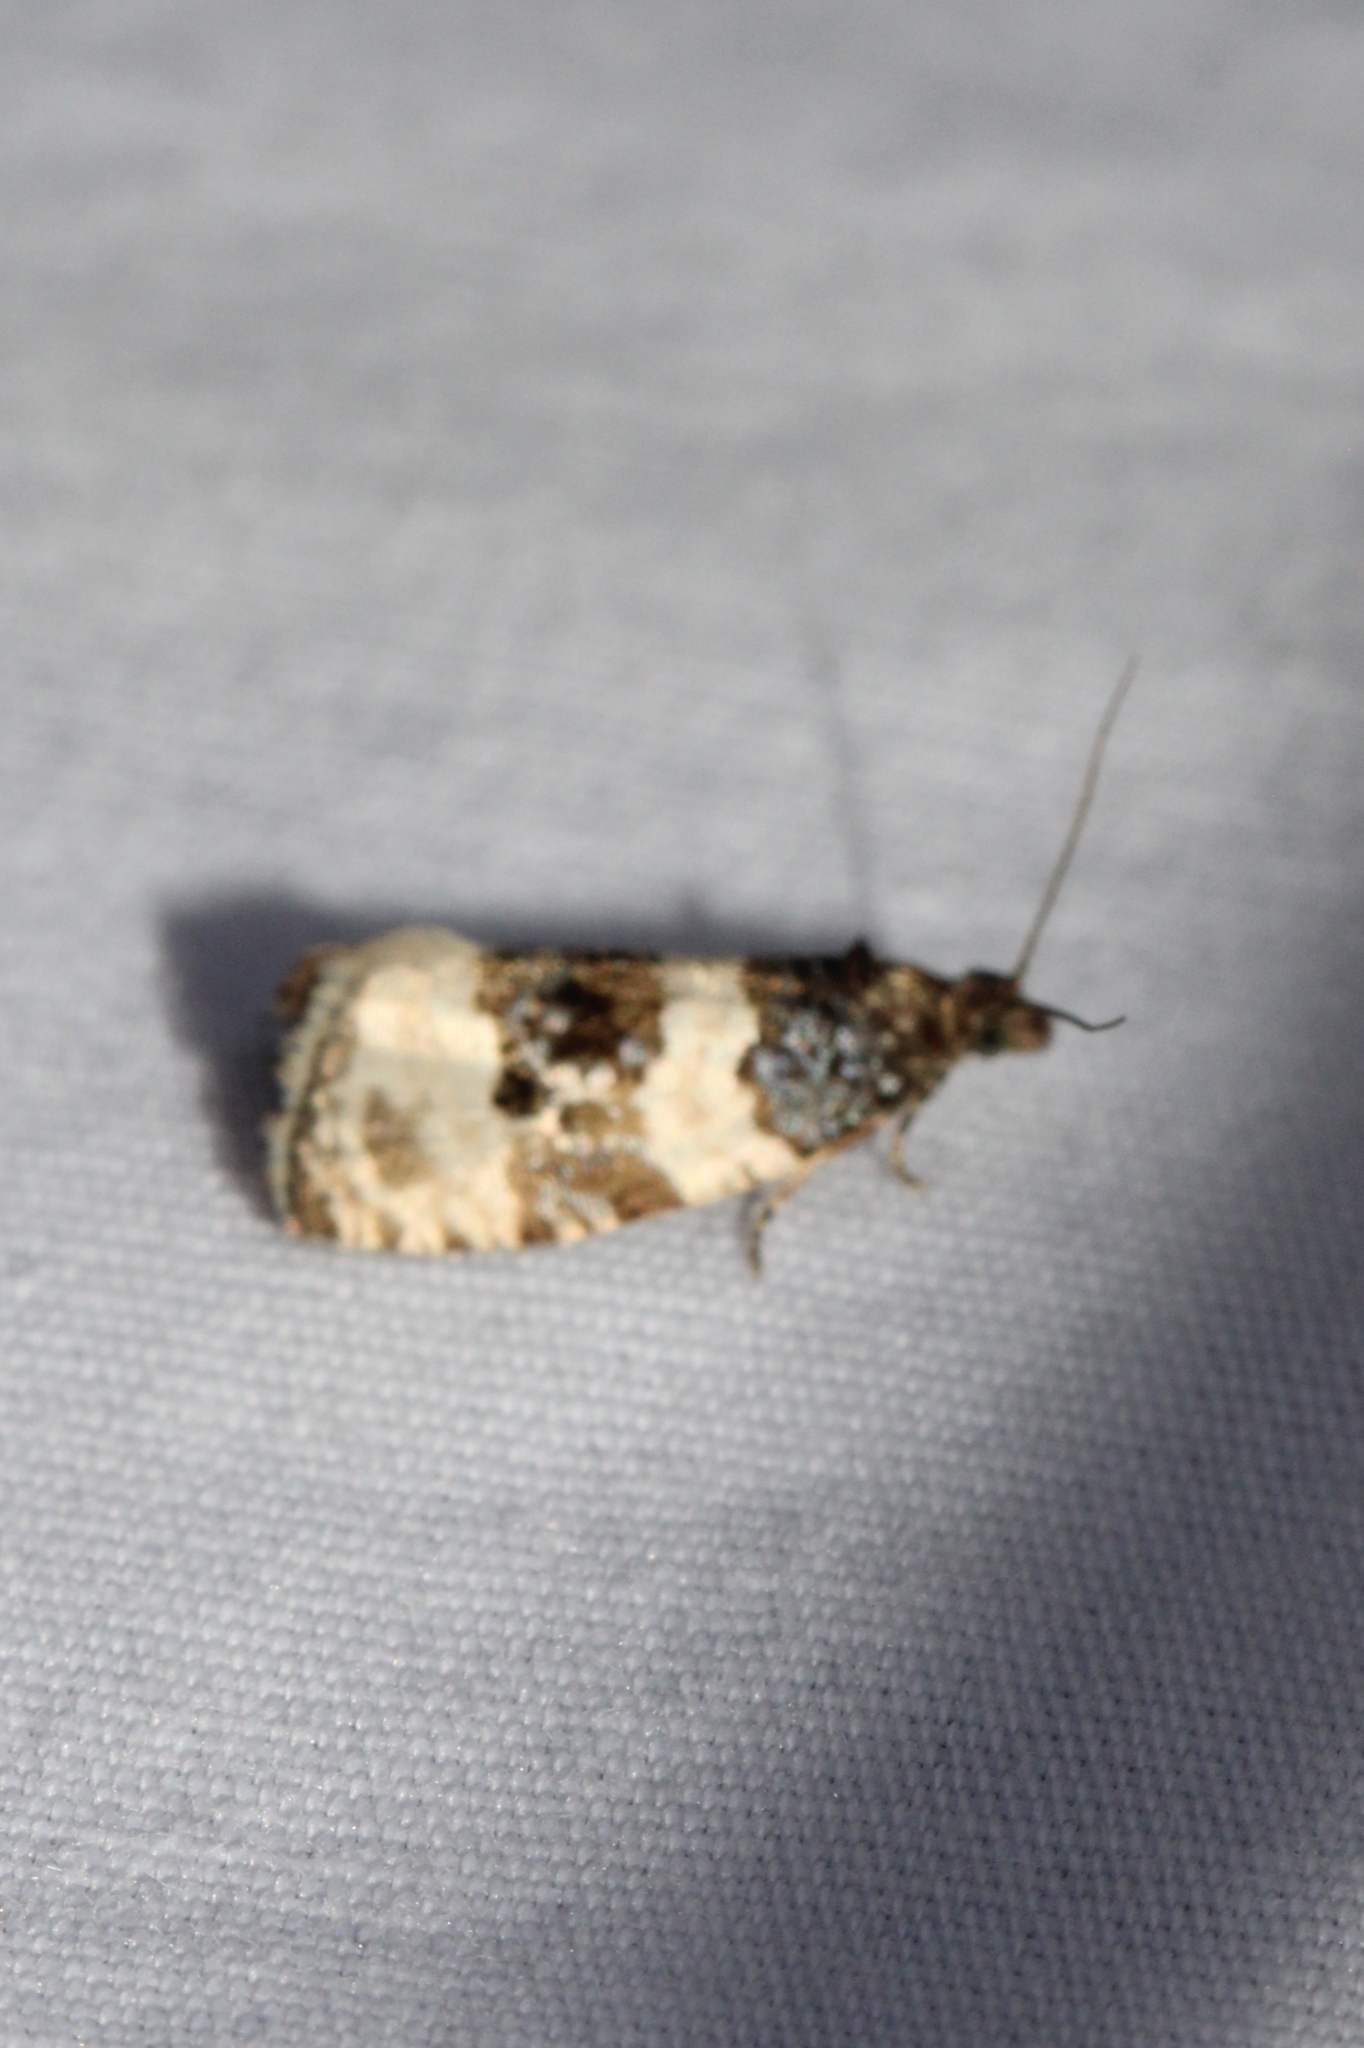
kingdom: Animalia
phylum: Arthropoda
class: Insecta
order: Lepidoptera
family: Tortricidae
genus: Olethreutes
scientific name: Olethreutes bipartitana
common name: Divided olethreutes moth
